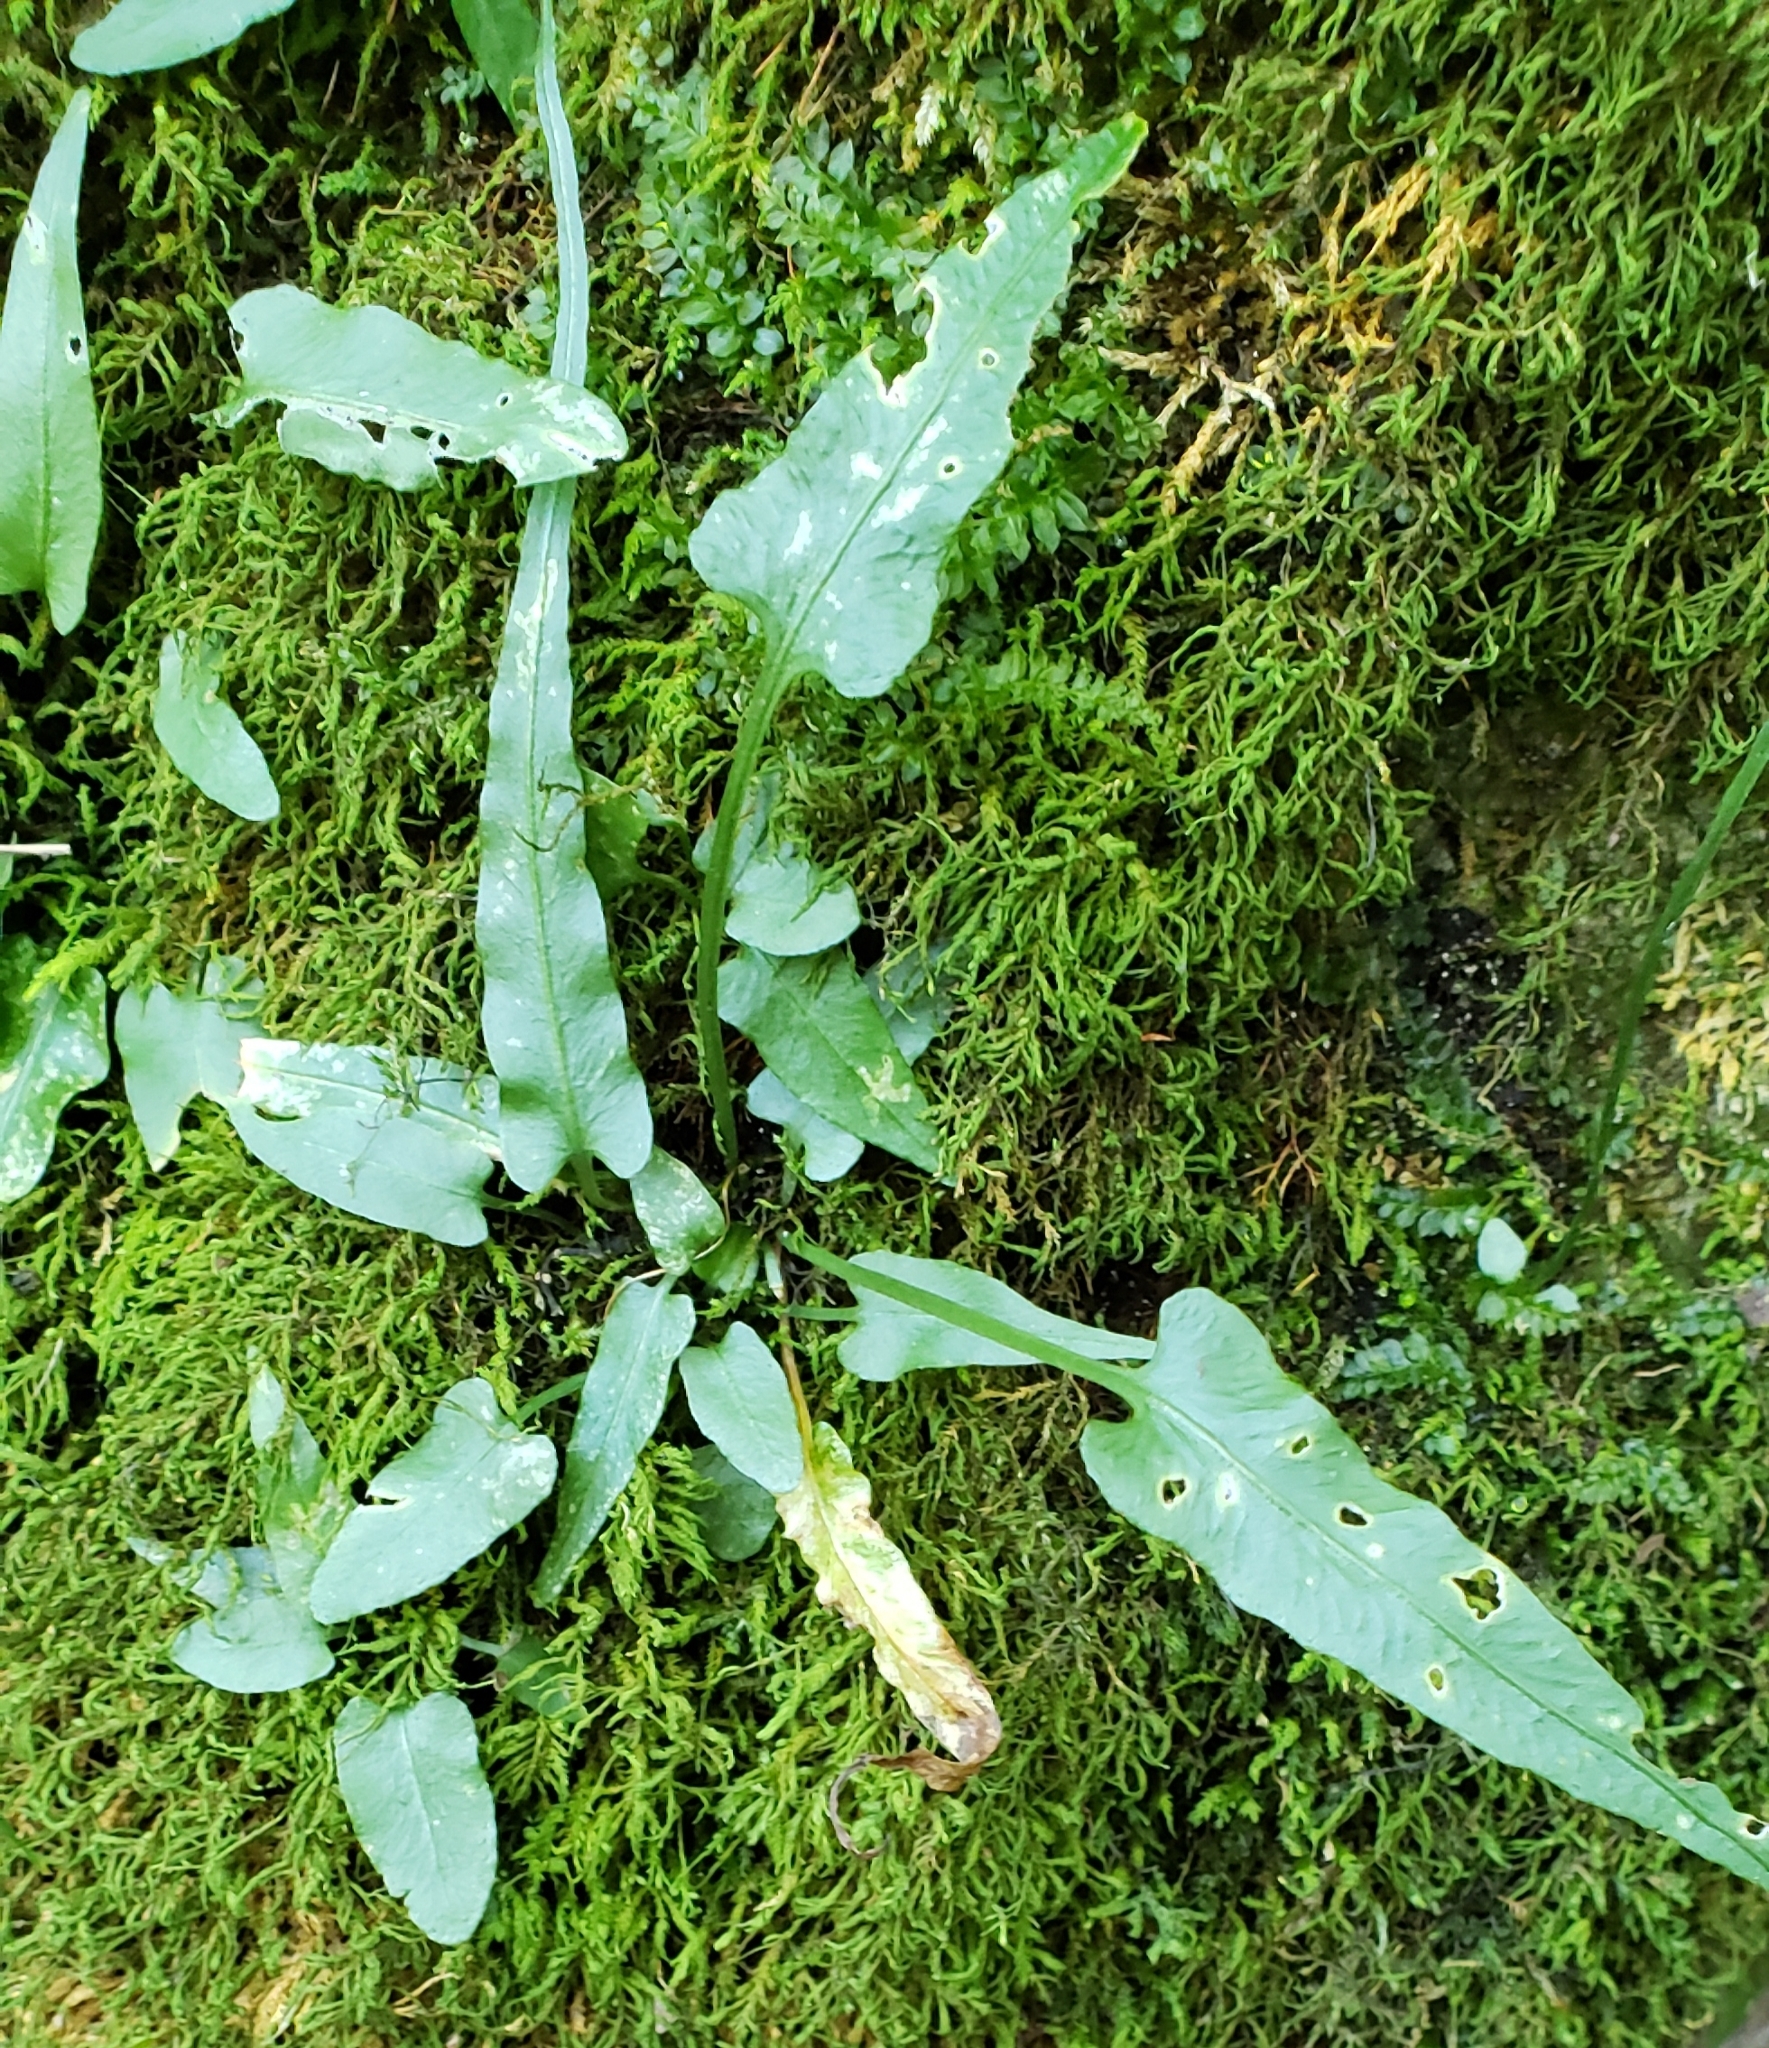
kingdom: Plantae
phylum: Tracheophyta
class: Polypodiopsida
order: Polypodiales
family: Aspleniaceae
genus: Asplenium
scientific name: Asplenium rhizophyllum
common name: Walking fern
